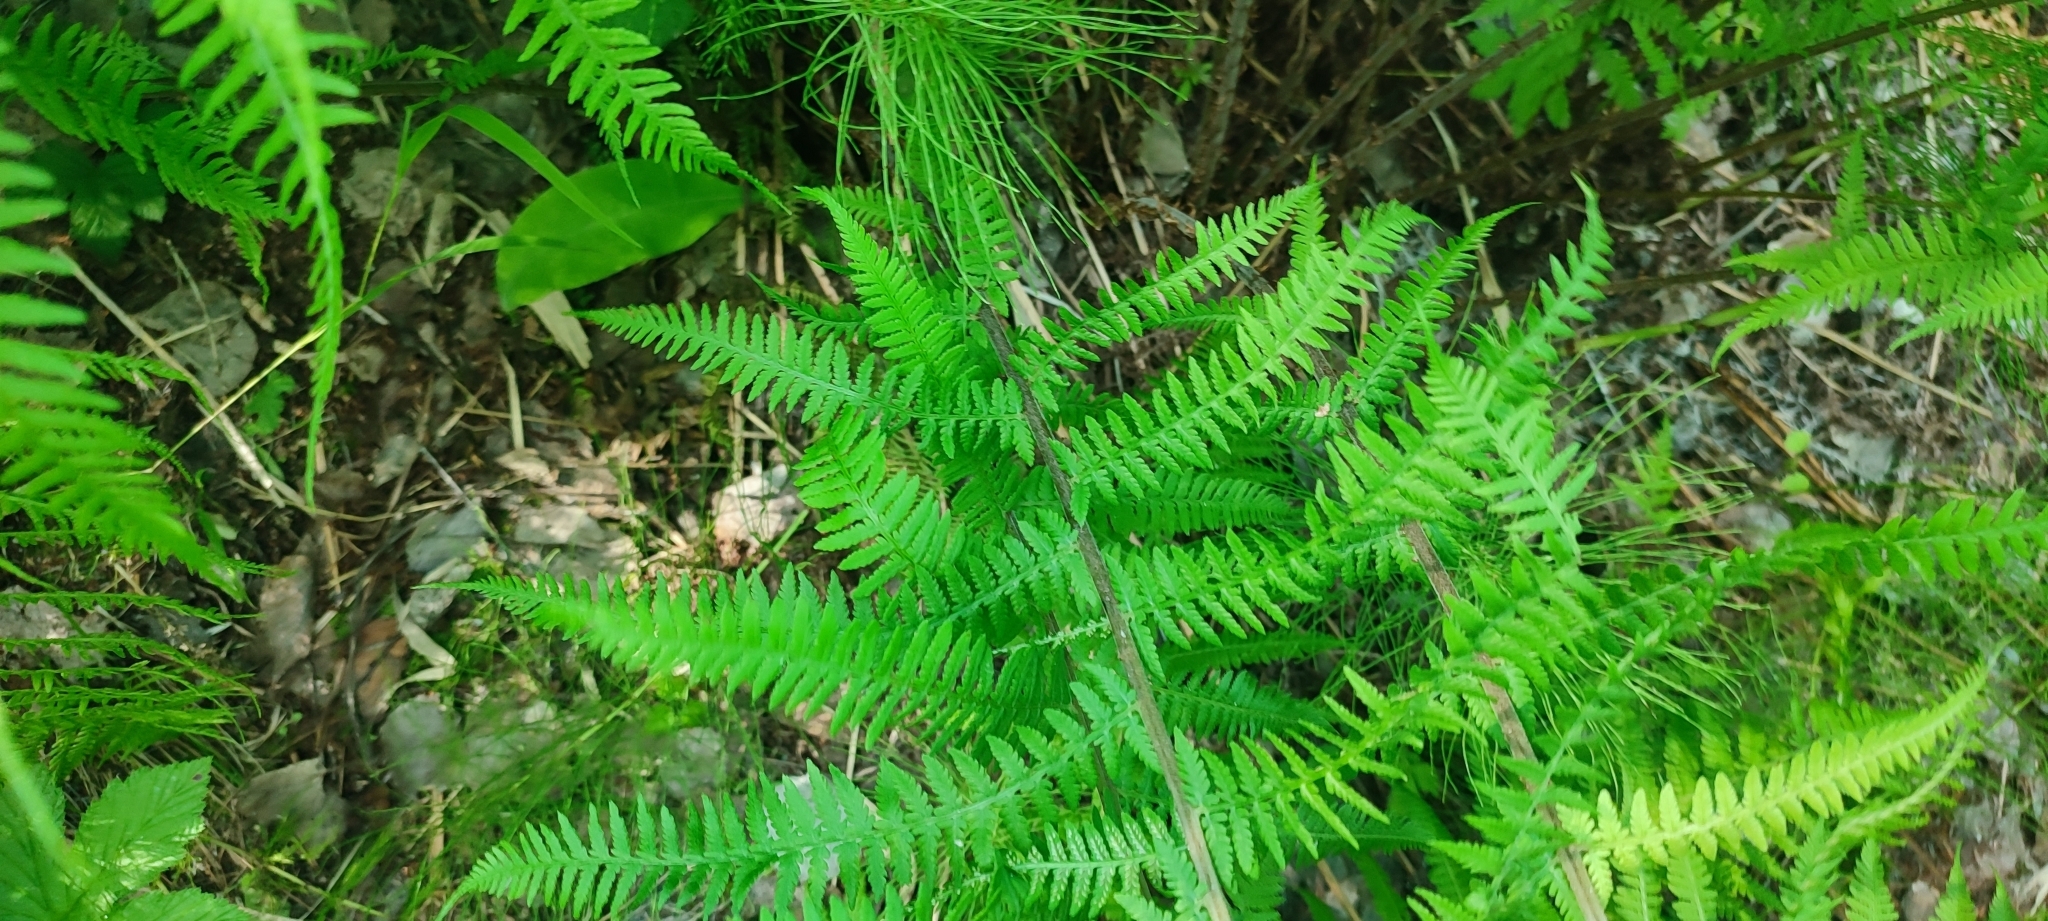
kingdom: Plantae
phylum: Tracheophyta
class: Polypodiopsida
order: Polypodiales
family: Athyriaceae
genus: Athyrium
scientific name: Athyrium filix-femina
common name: Lady fern
